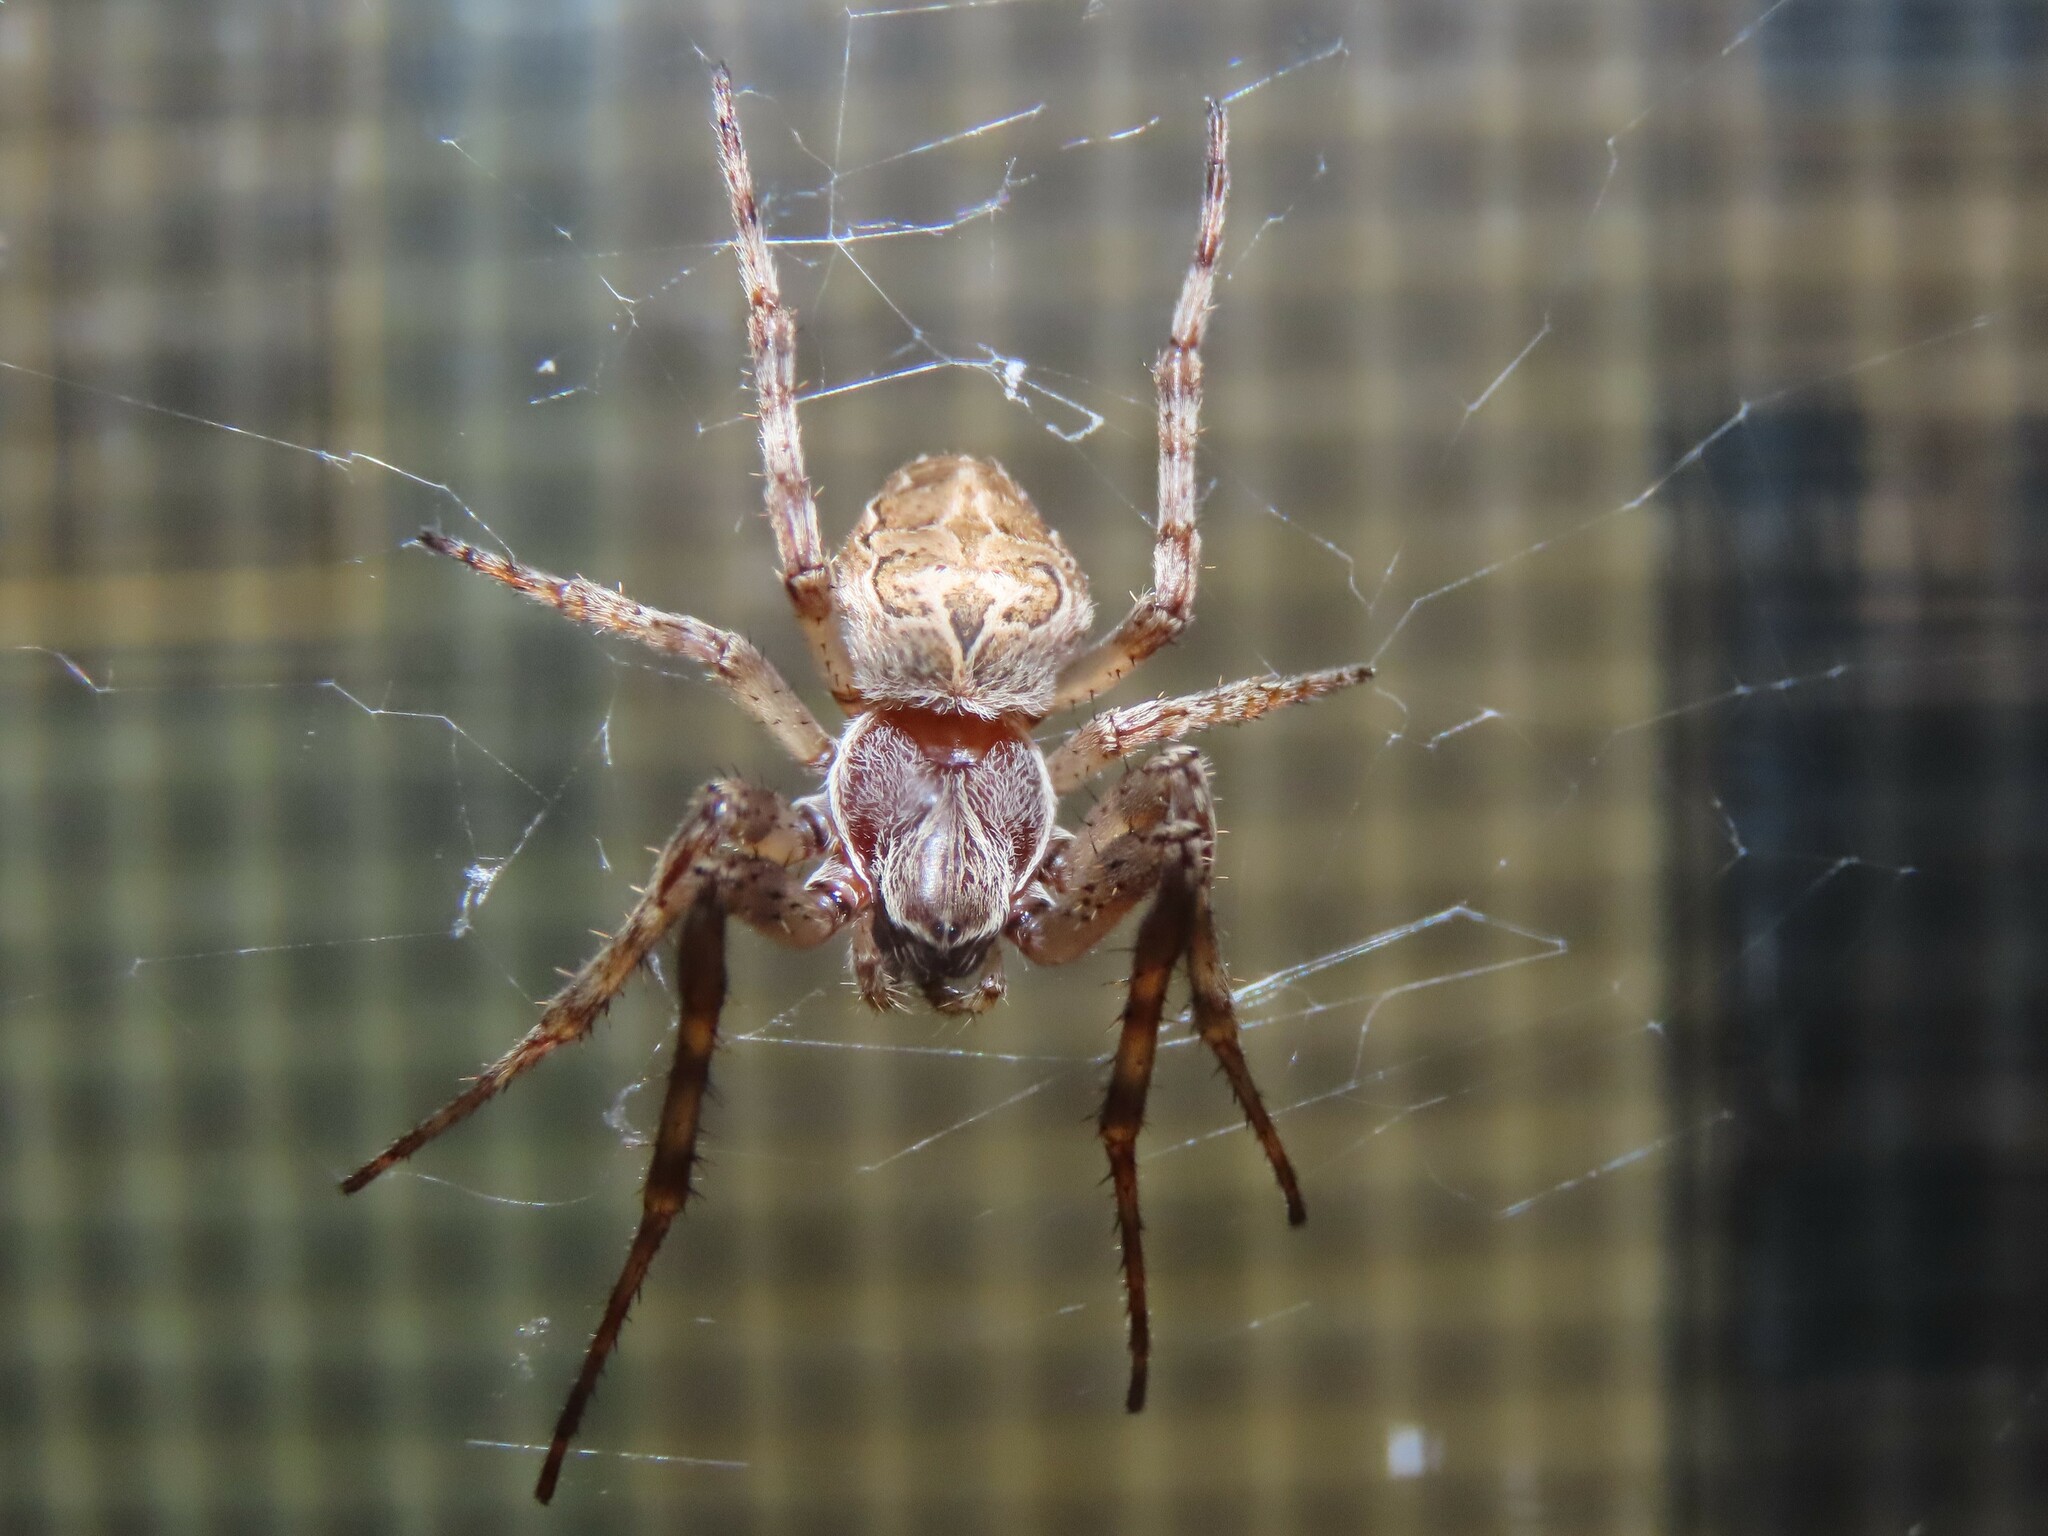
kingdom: Animalia
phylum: Arthropoda
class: Arachnida
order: Araneae
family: Araneidae
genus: Larinioides
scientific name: Larinioides sclopetarius
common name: Bridge orbweaver
